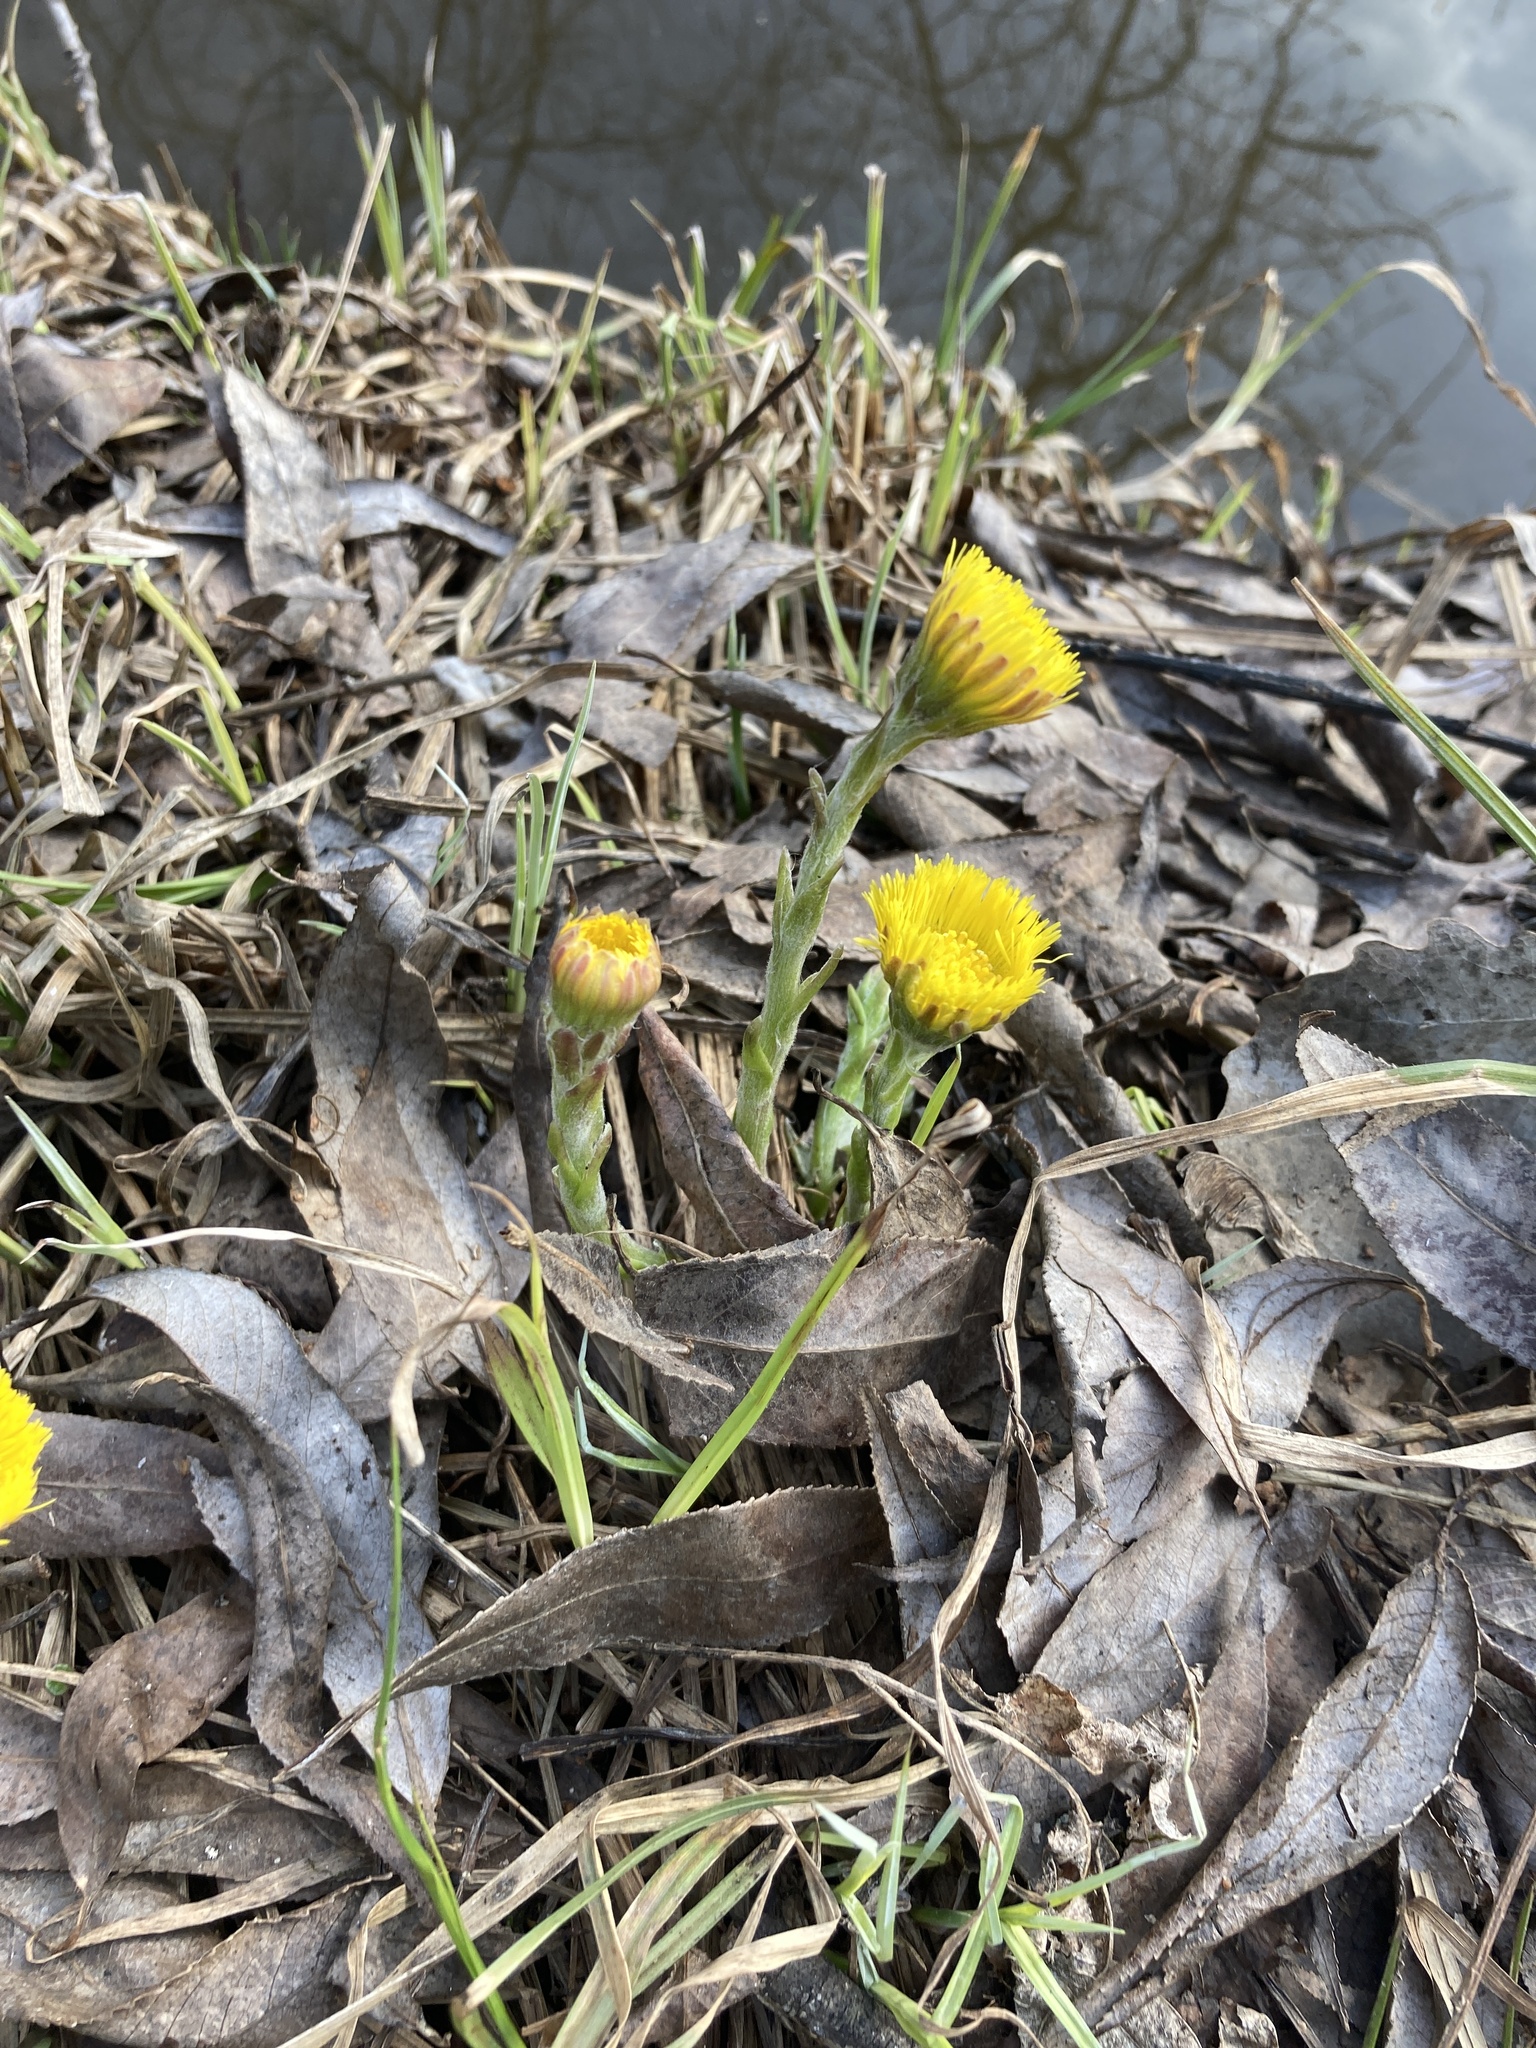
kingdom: Plantae
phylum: Tracheophyta
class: Magnoliopsida
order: Asterales
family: Asteraceae
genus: Tussilago
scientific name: Tussilago farfara
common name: Coltsfoot
